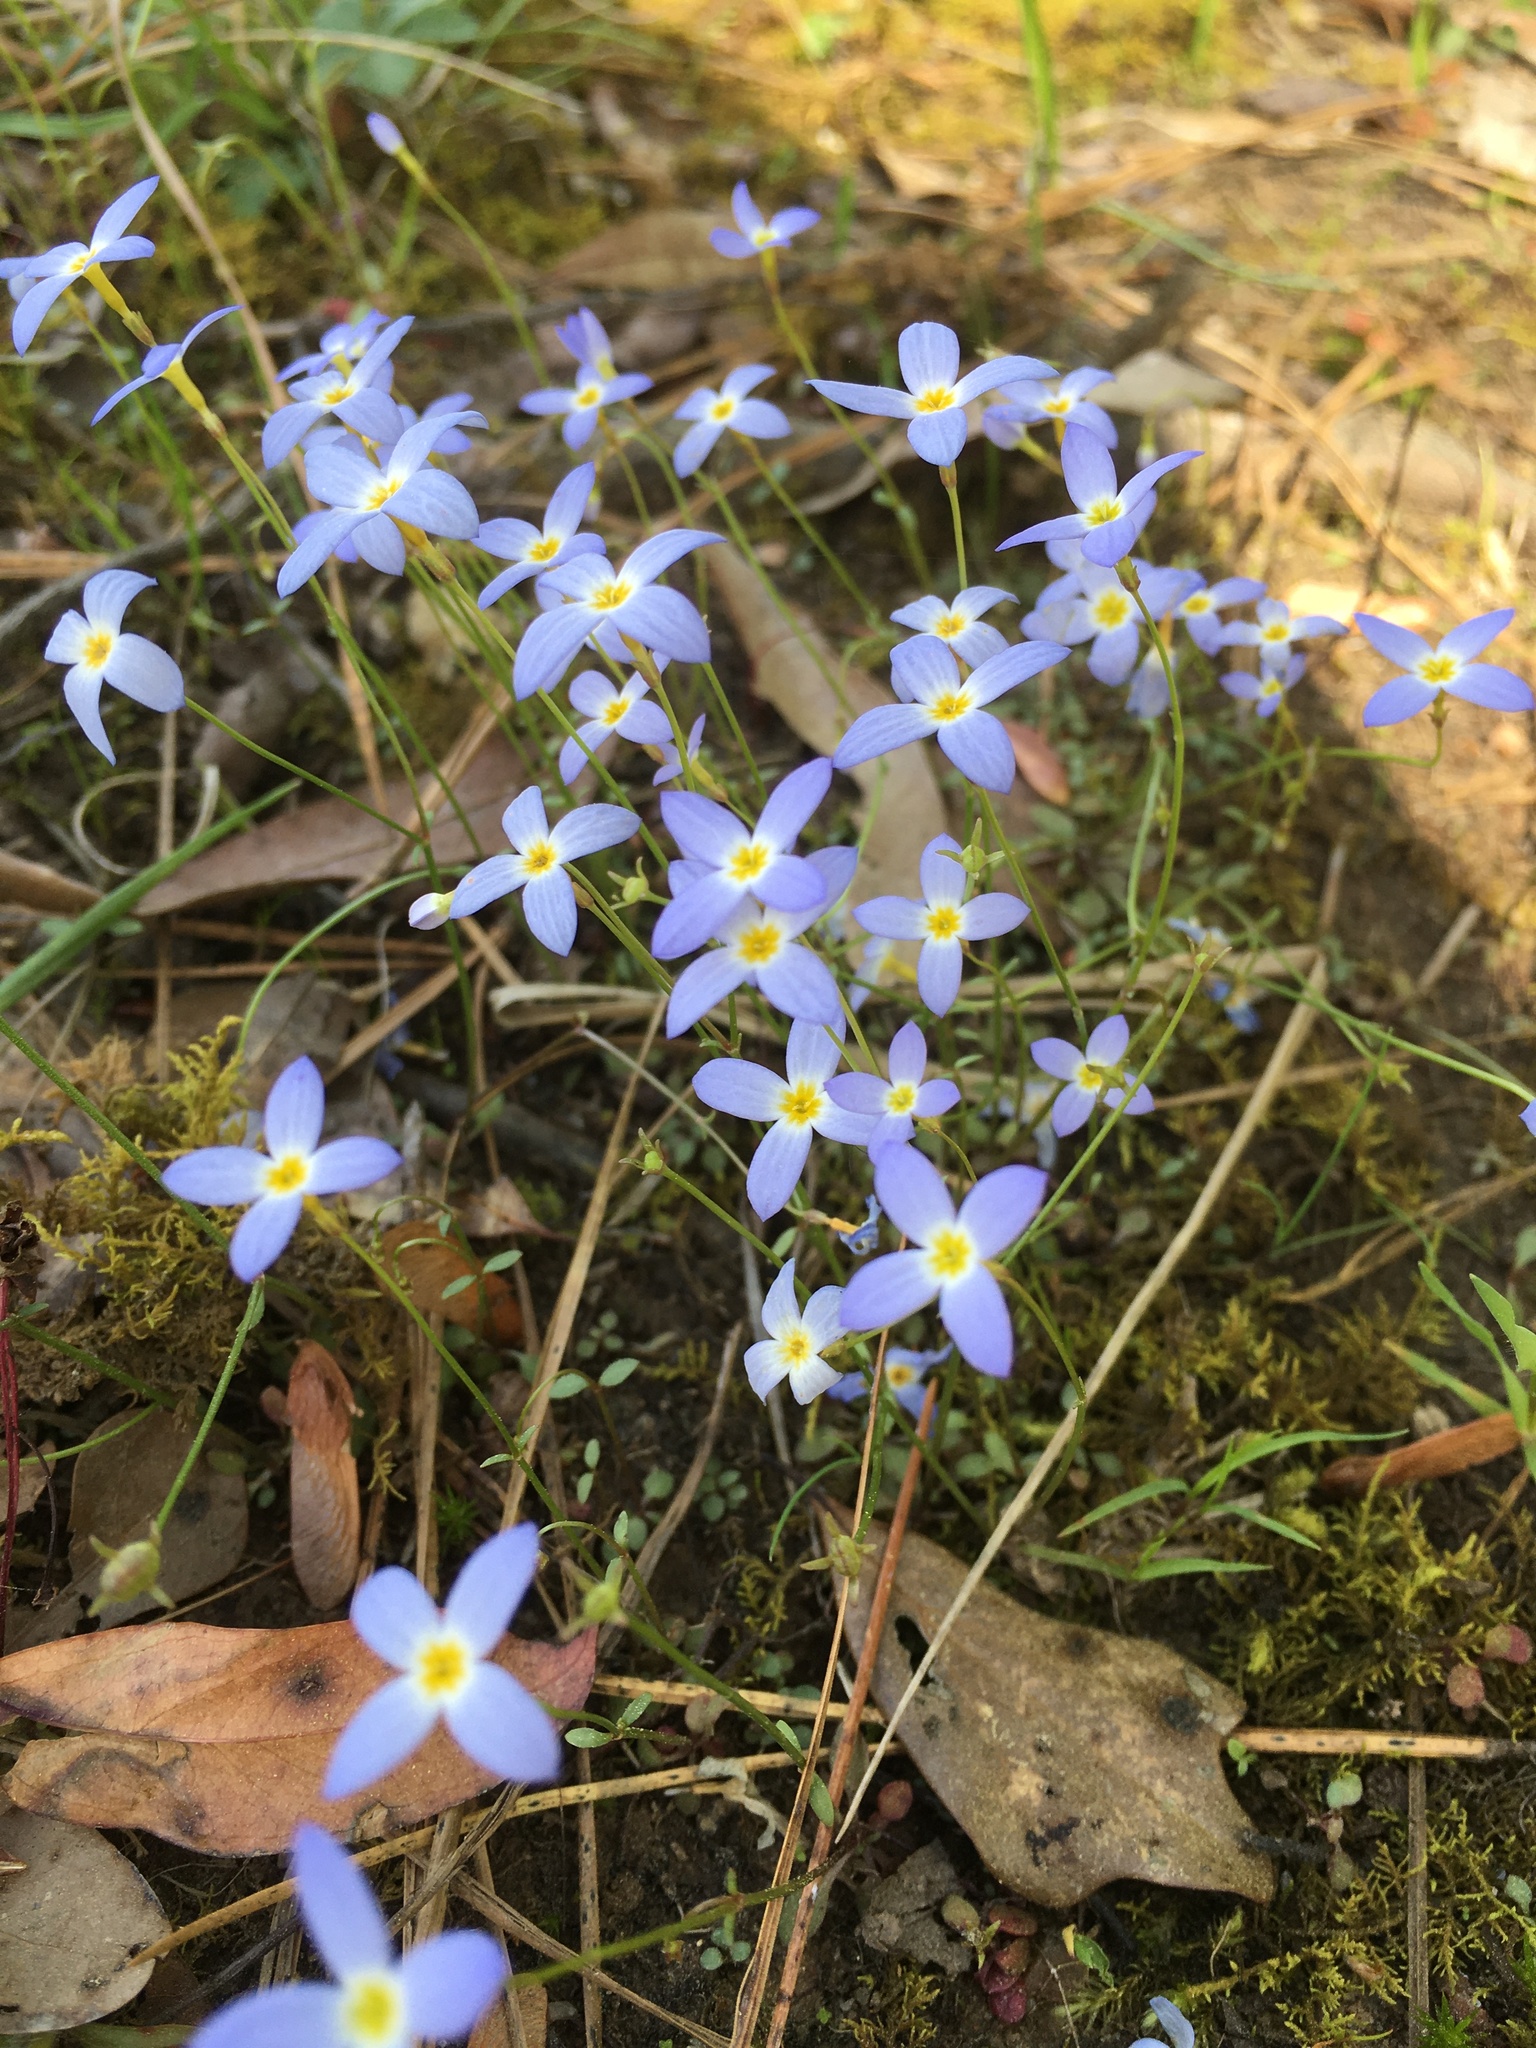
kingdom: Plantae
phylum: Tracheophyta
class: Magnoliopsida
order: Gentianales
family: Rubiaceae
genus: Houstonia
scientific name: Houstonia caerulea
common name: Bluets
